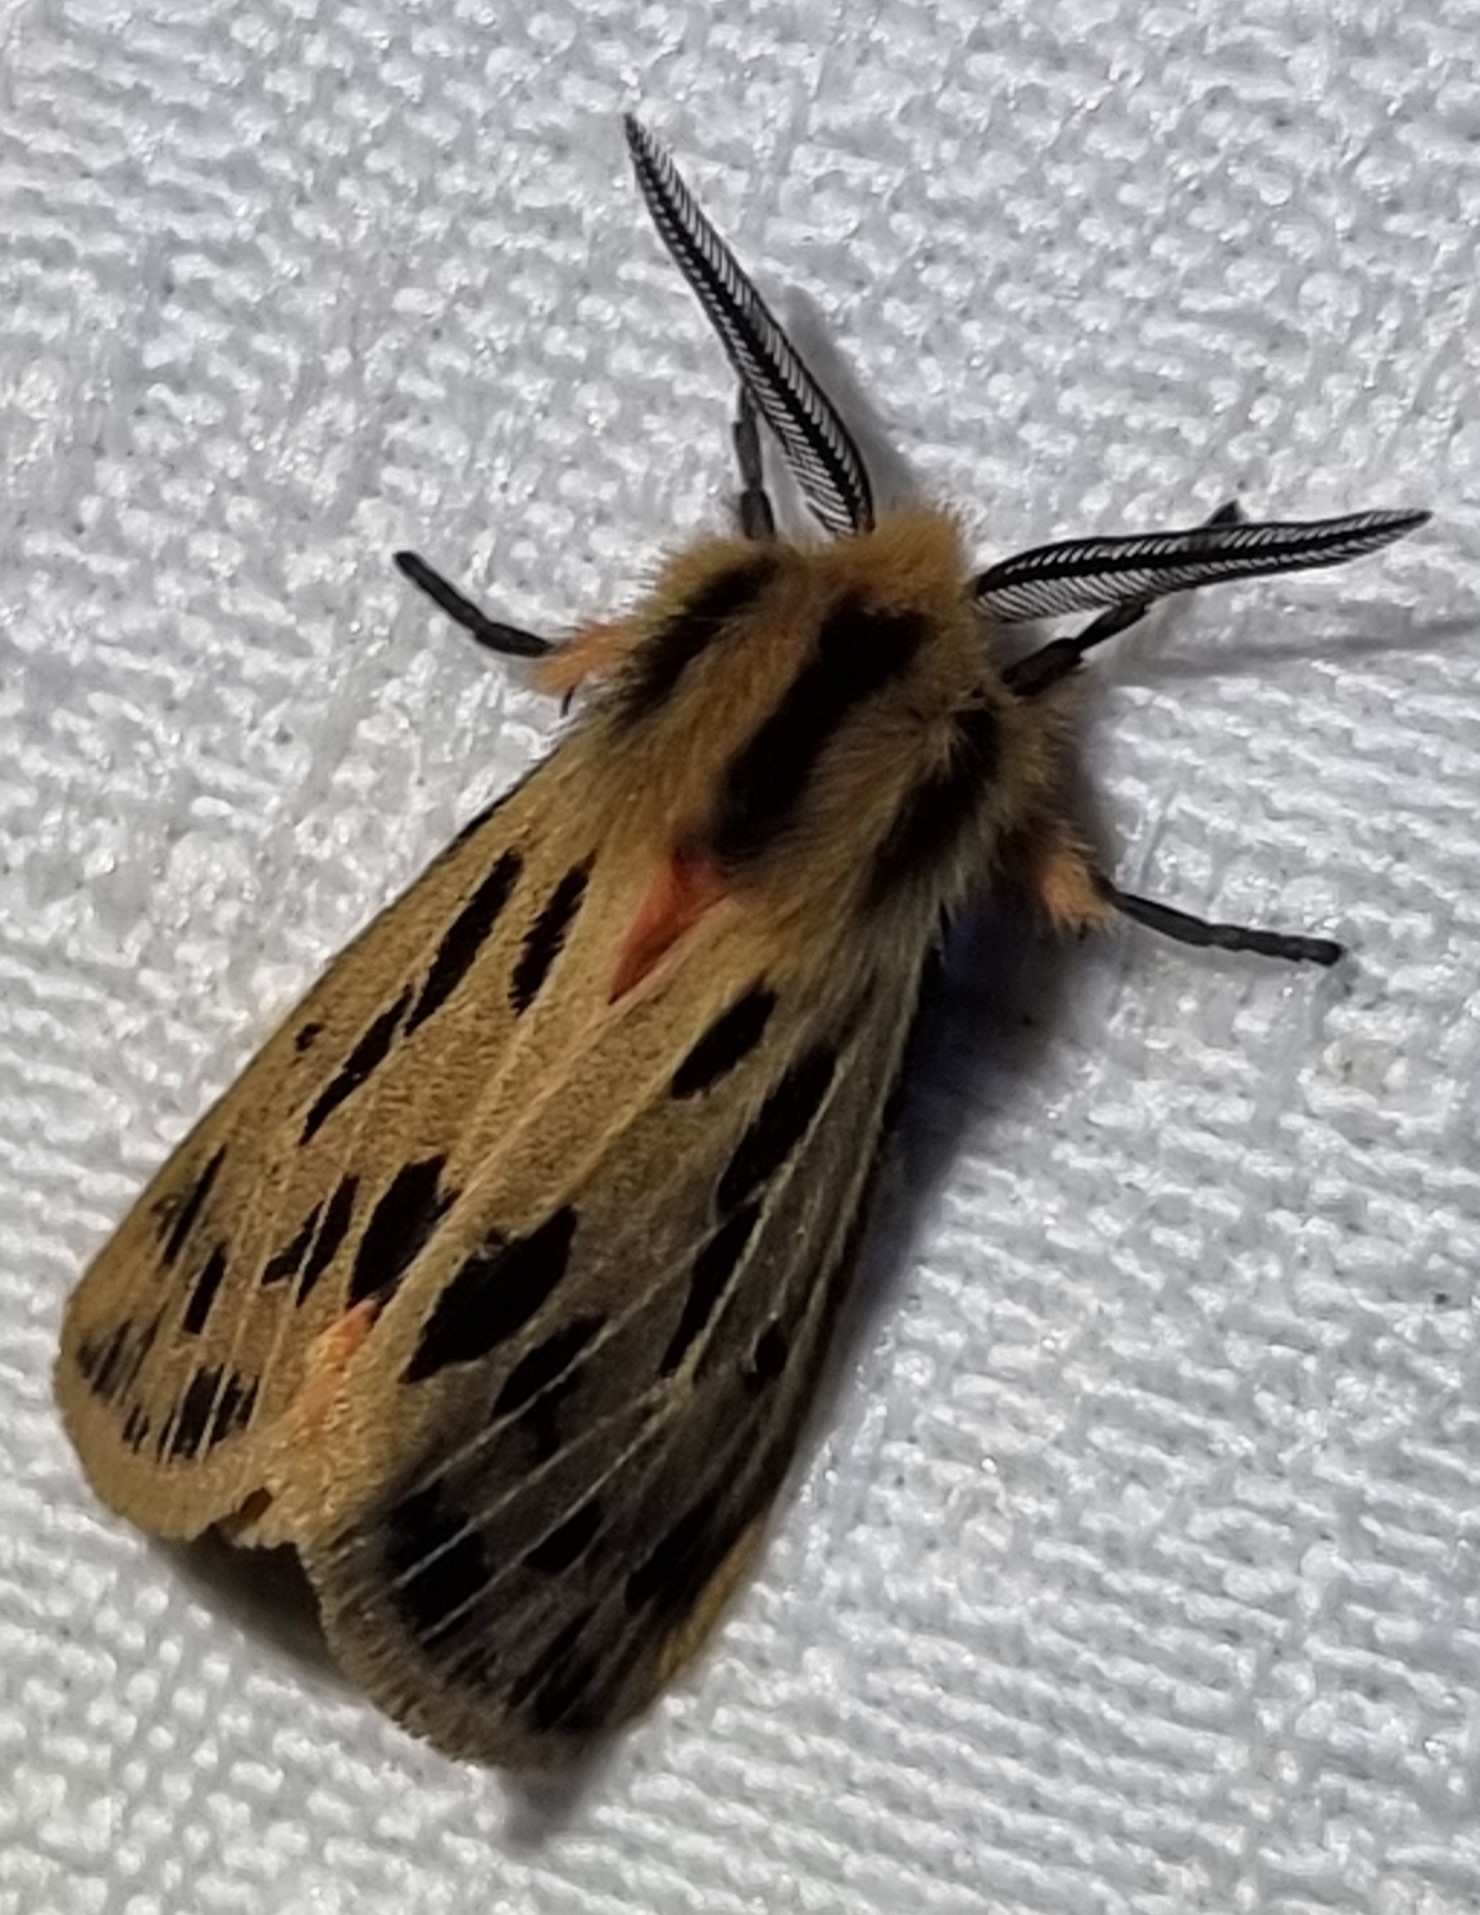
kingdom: Animalia
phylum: Arthropoda
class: Insecta
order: Lepidoptera
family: Erebidae
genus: Ardices
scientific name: Ardices curvata
